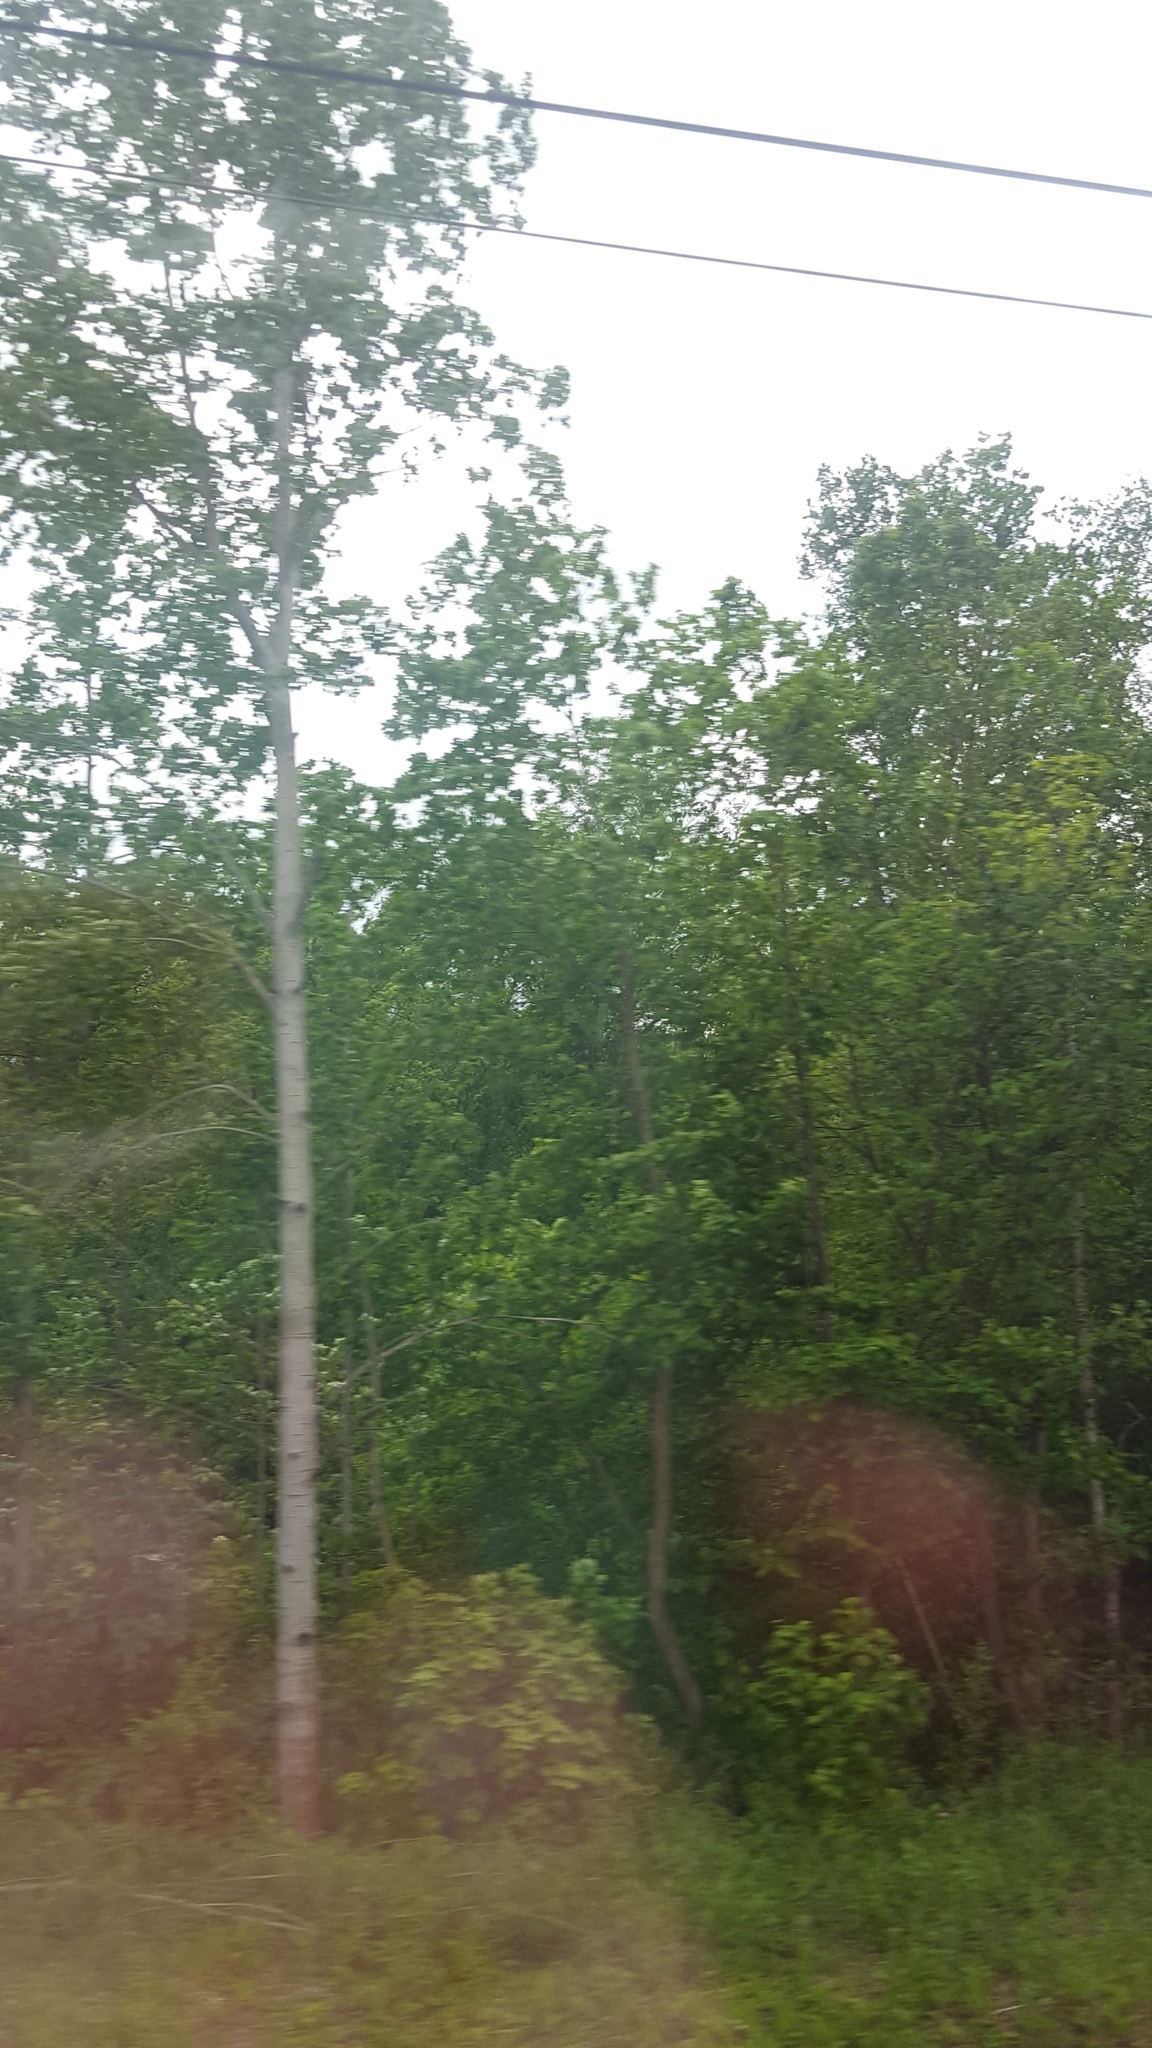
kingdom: Plantae
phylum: Tracheophyta
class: Magnoliopsida
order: Fagales
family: Betulaceae
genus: Betula
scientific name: Betula pendula
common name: Silver birch
